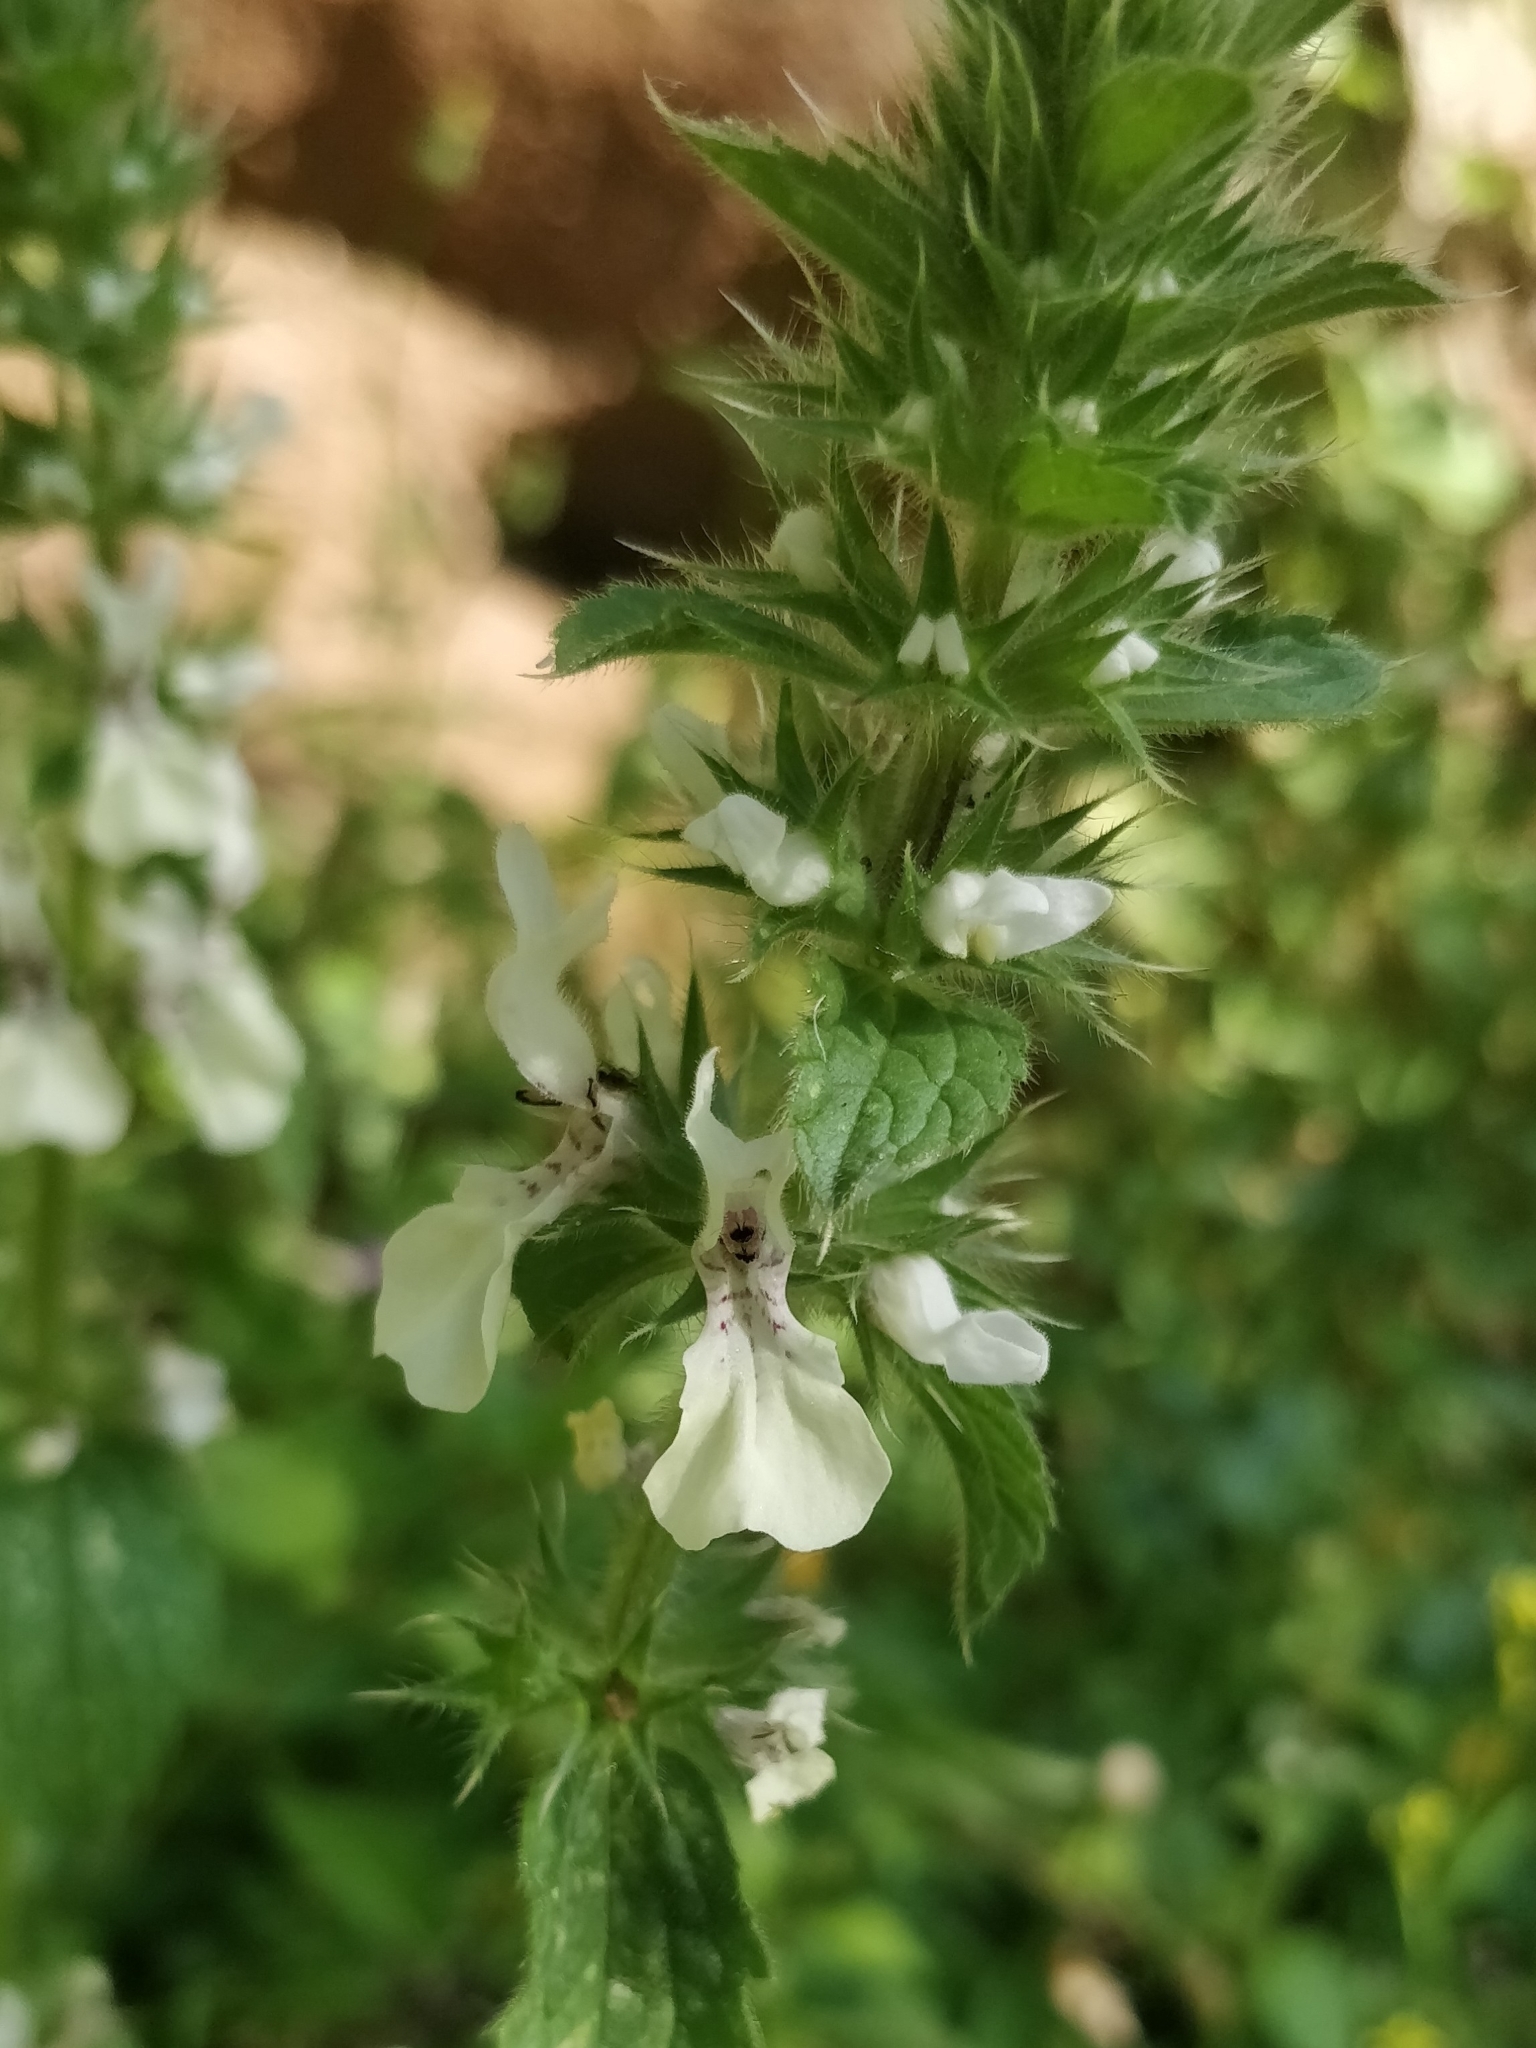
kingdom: Plantae
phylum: Tracheophyta
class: Magnoliopsida
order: Lamiales
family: Lamiaceae
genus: Stachys
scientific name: Stachys ocymastrum
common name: Italian hedgenettle
